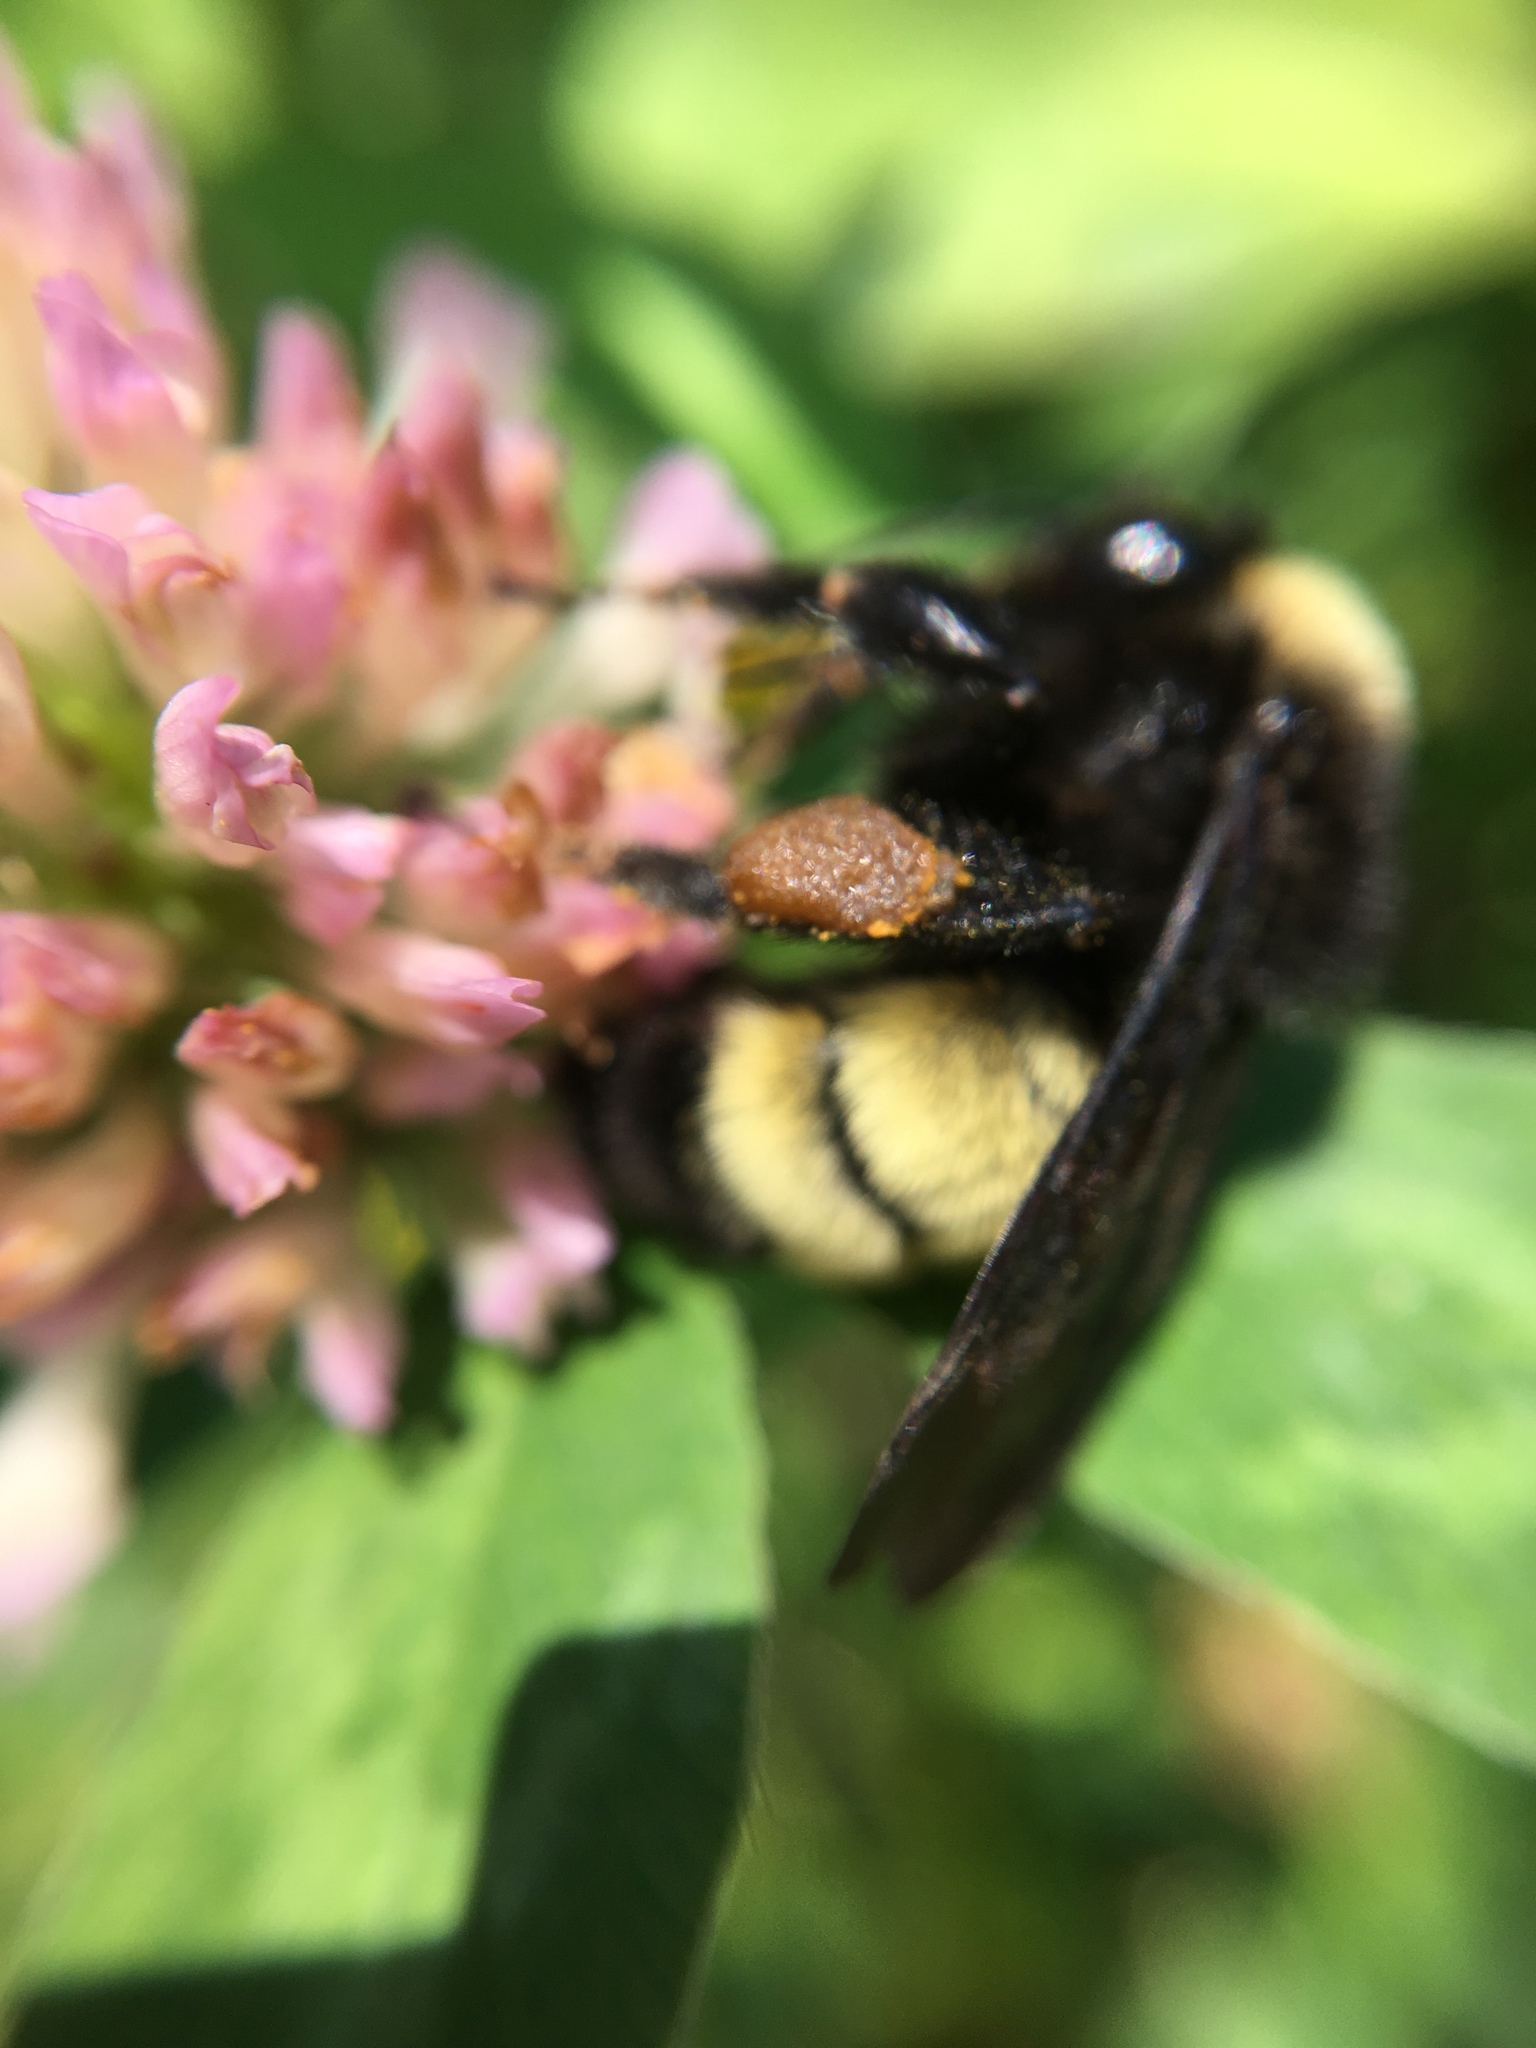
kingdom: Animalia
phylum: Arthropoda
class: Insecta
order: Hymenoptera
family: Apidae
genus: Bombus
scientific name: Bombus pensylvanicus
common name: Bumble bee
